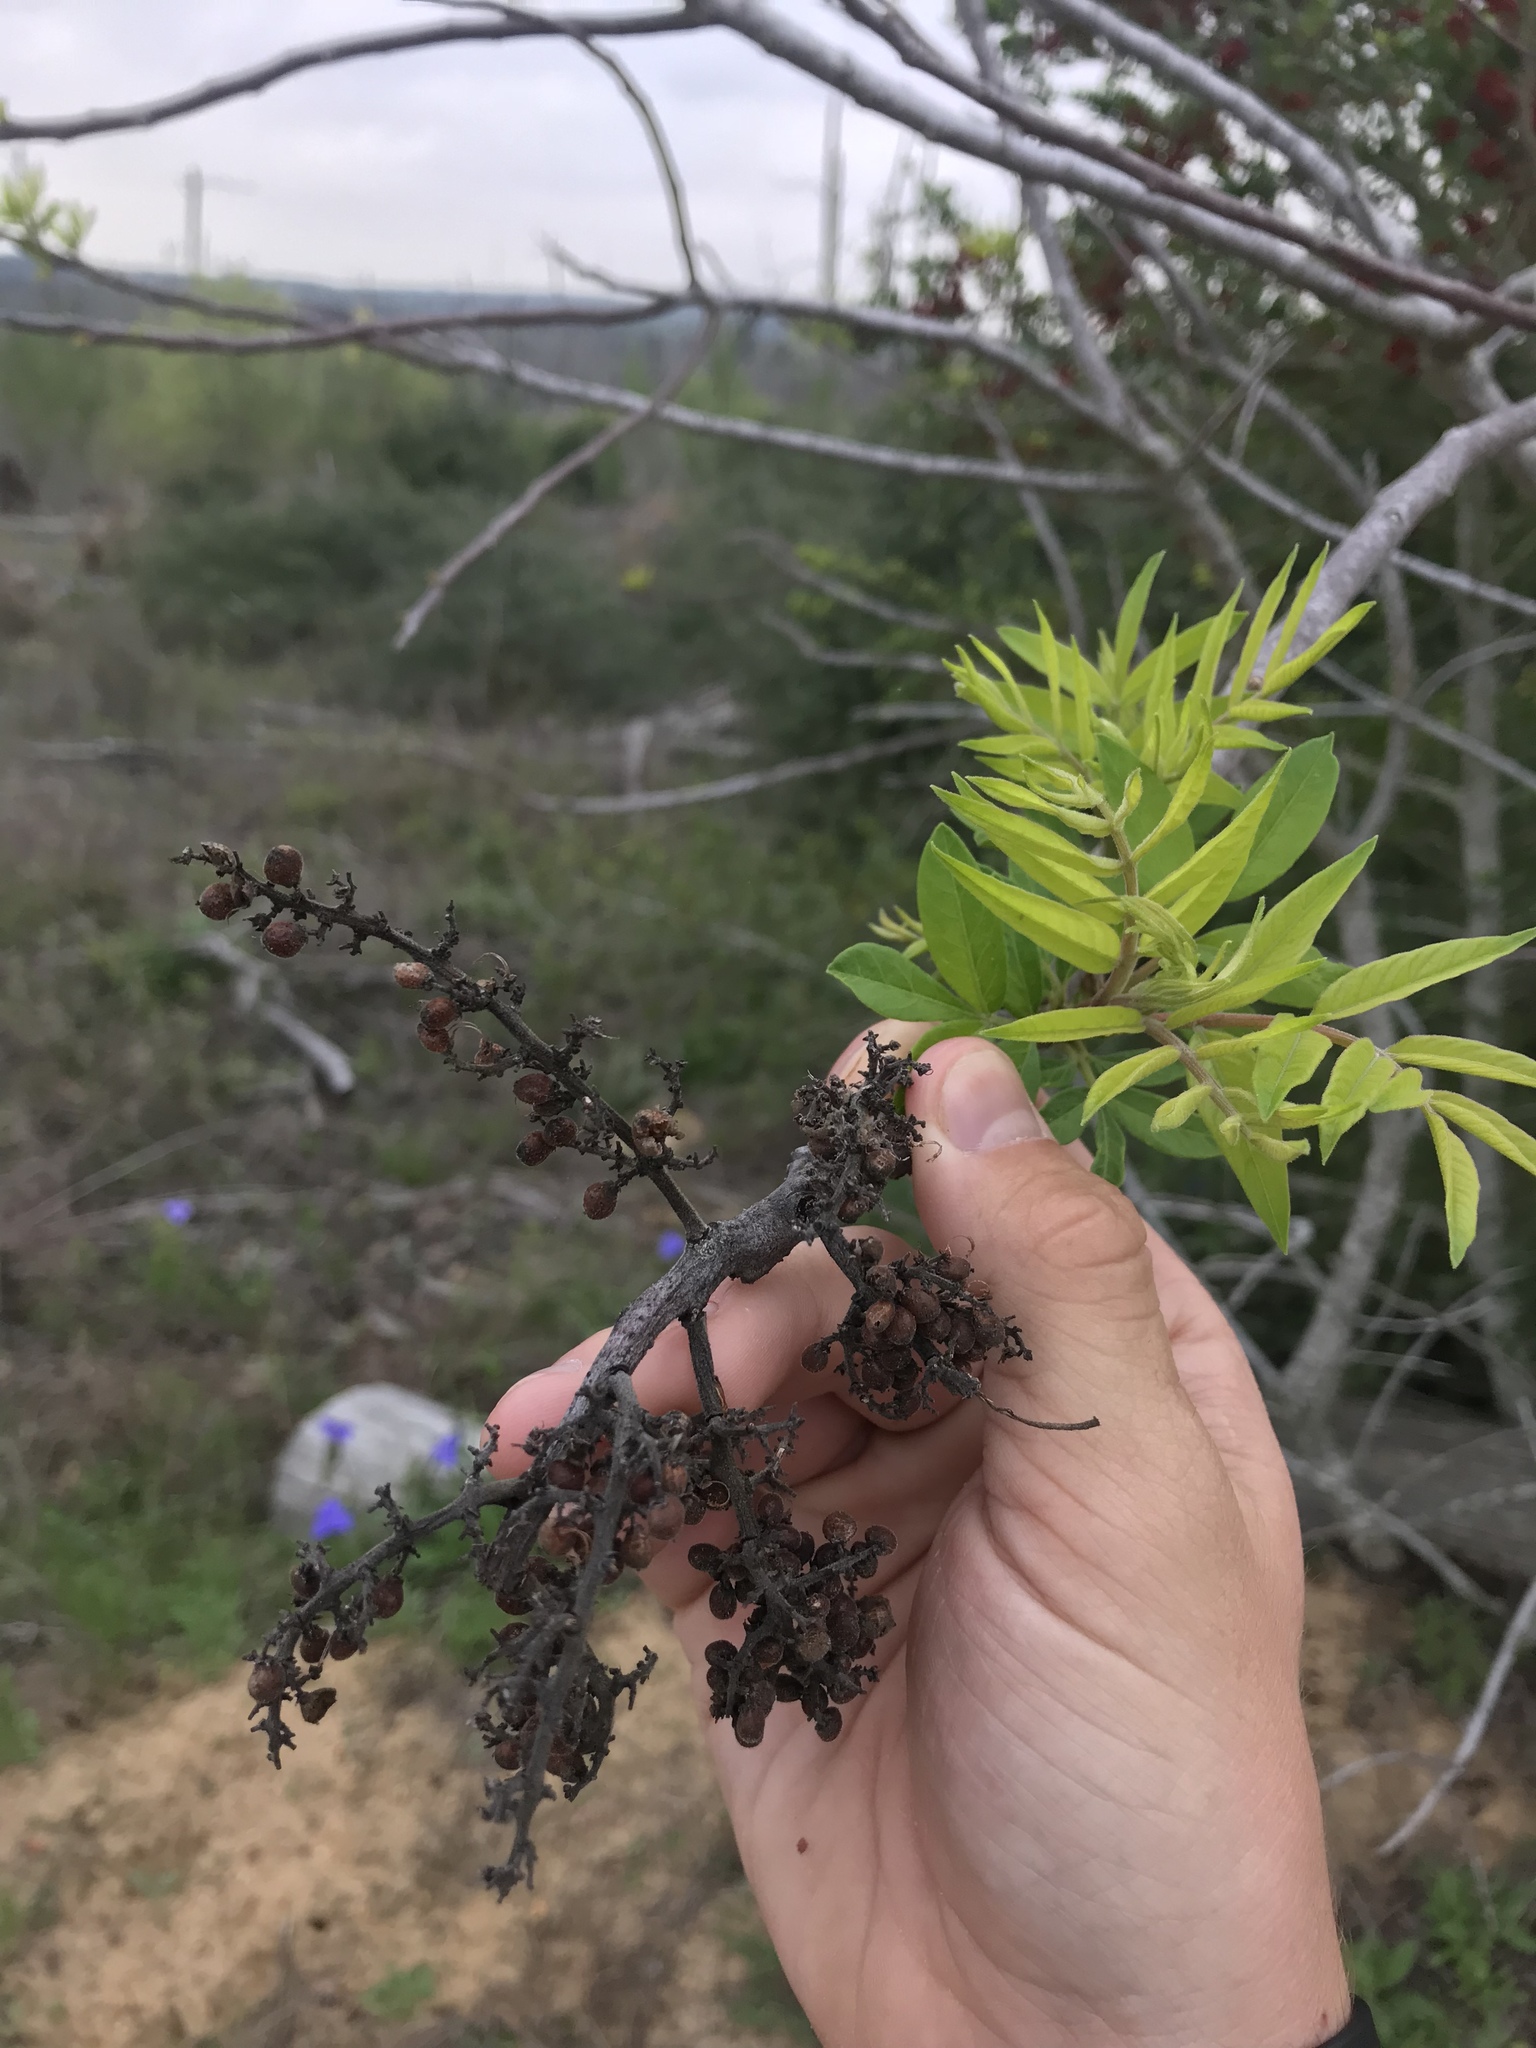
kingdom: Plantae
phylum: Tracheophyta
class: Magnoliopsida
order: Sapindales
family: Anacardiaceae
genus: Rhus
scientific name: Rhus lanceolata
